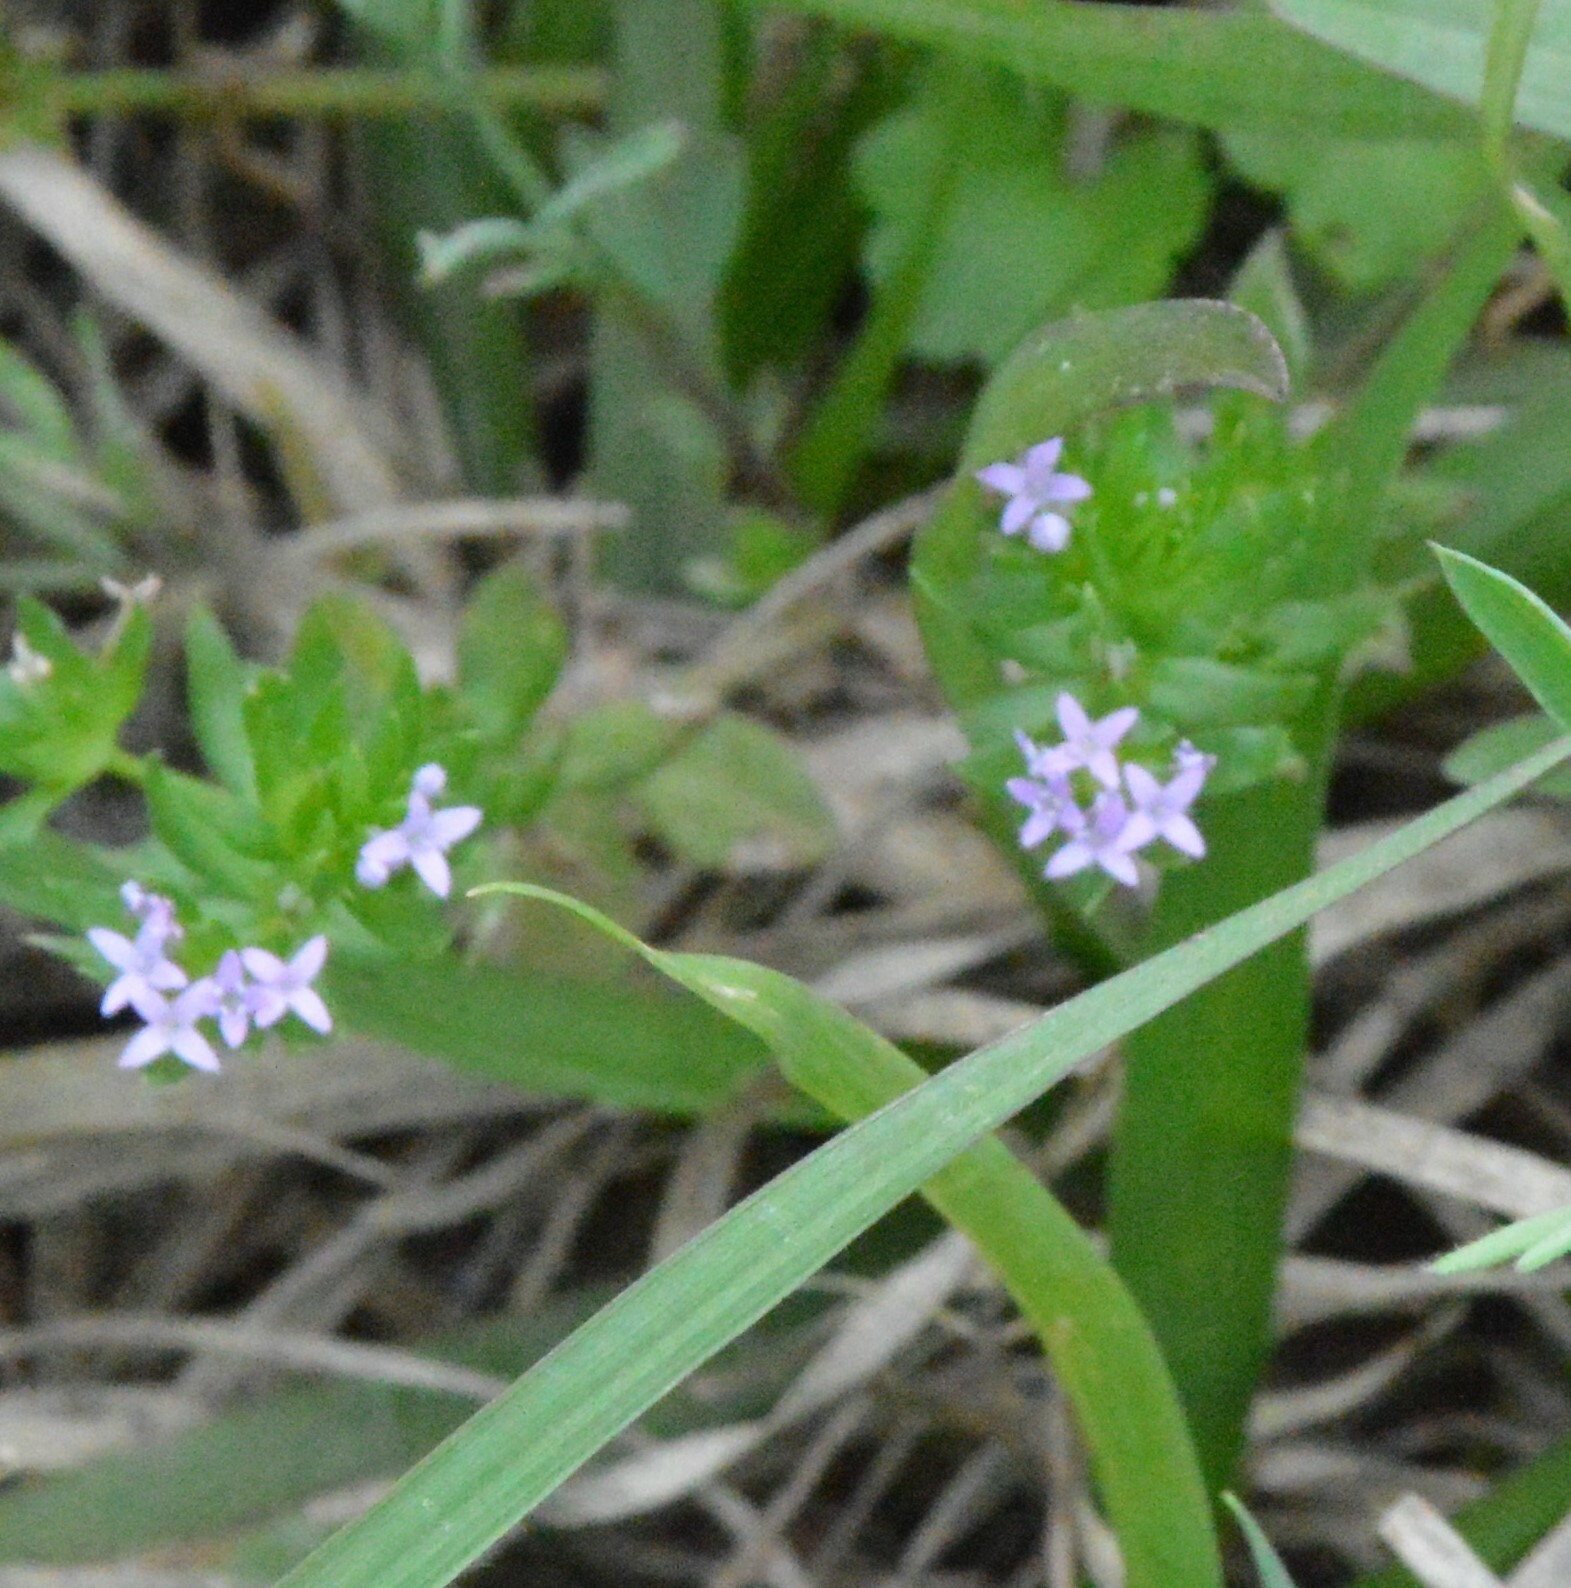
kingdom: Plantae
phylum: Tracheophyta
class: Magnoliopsida
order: Gentianales
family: Rubiaceae
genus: Sherardia
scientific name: Sherardia arvensis
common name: Field madder
